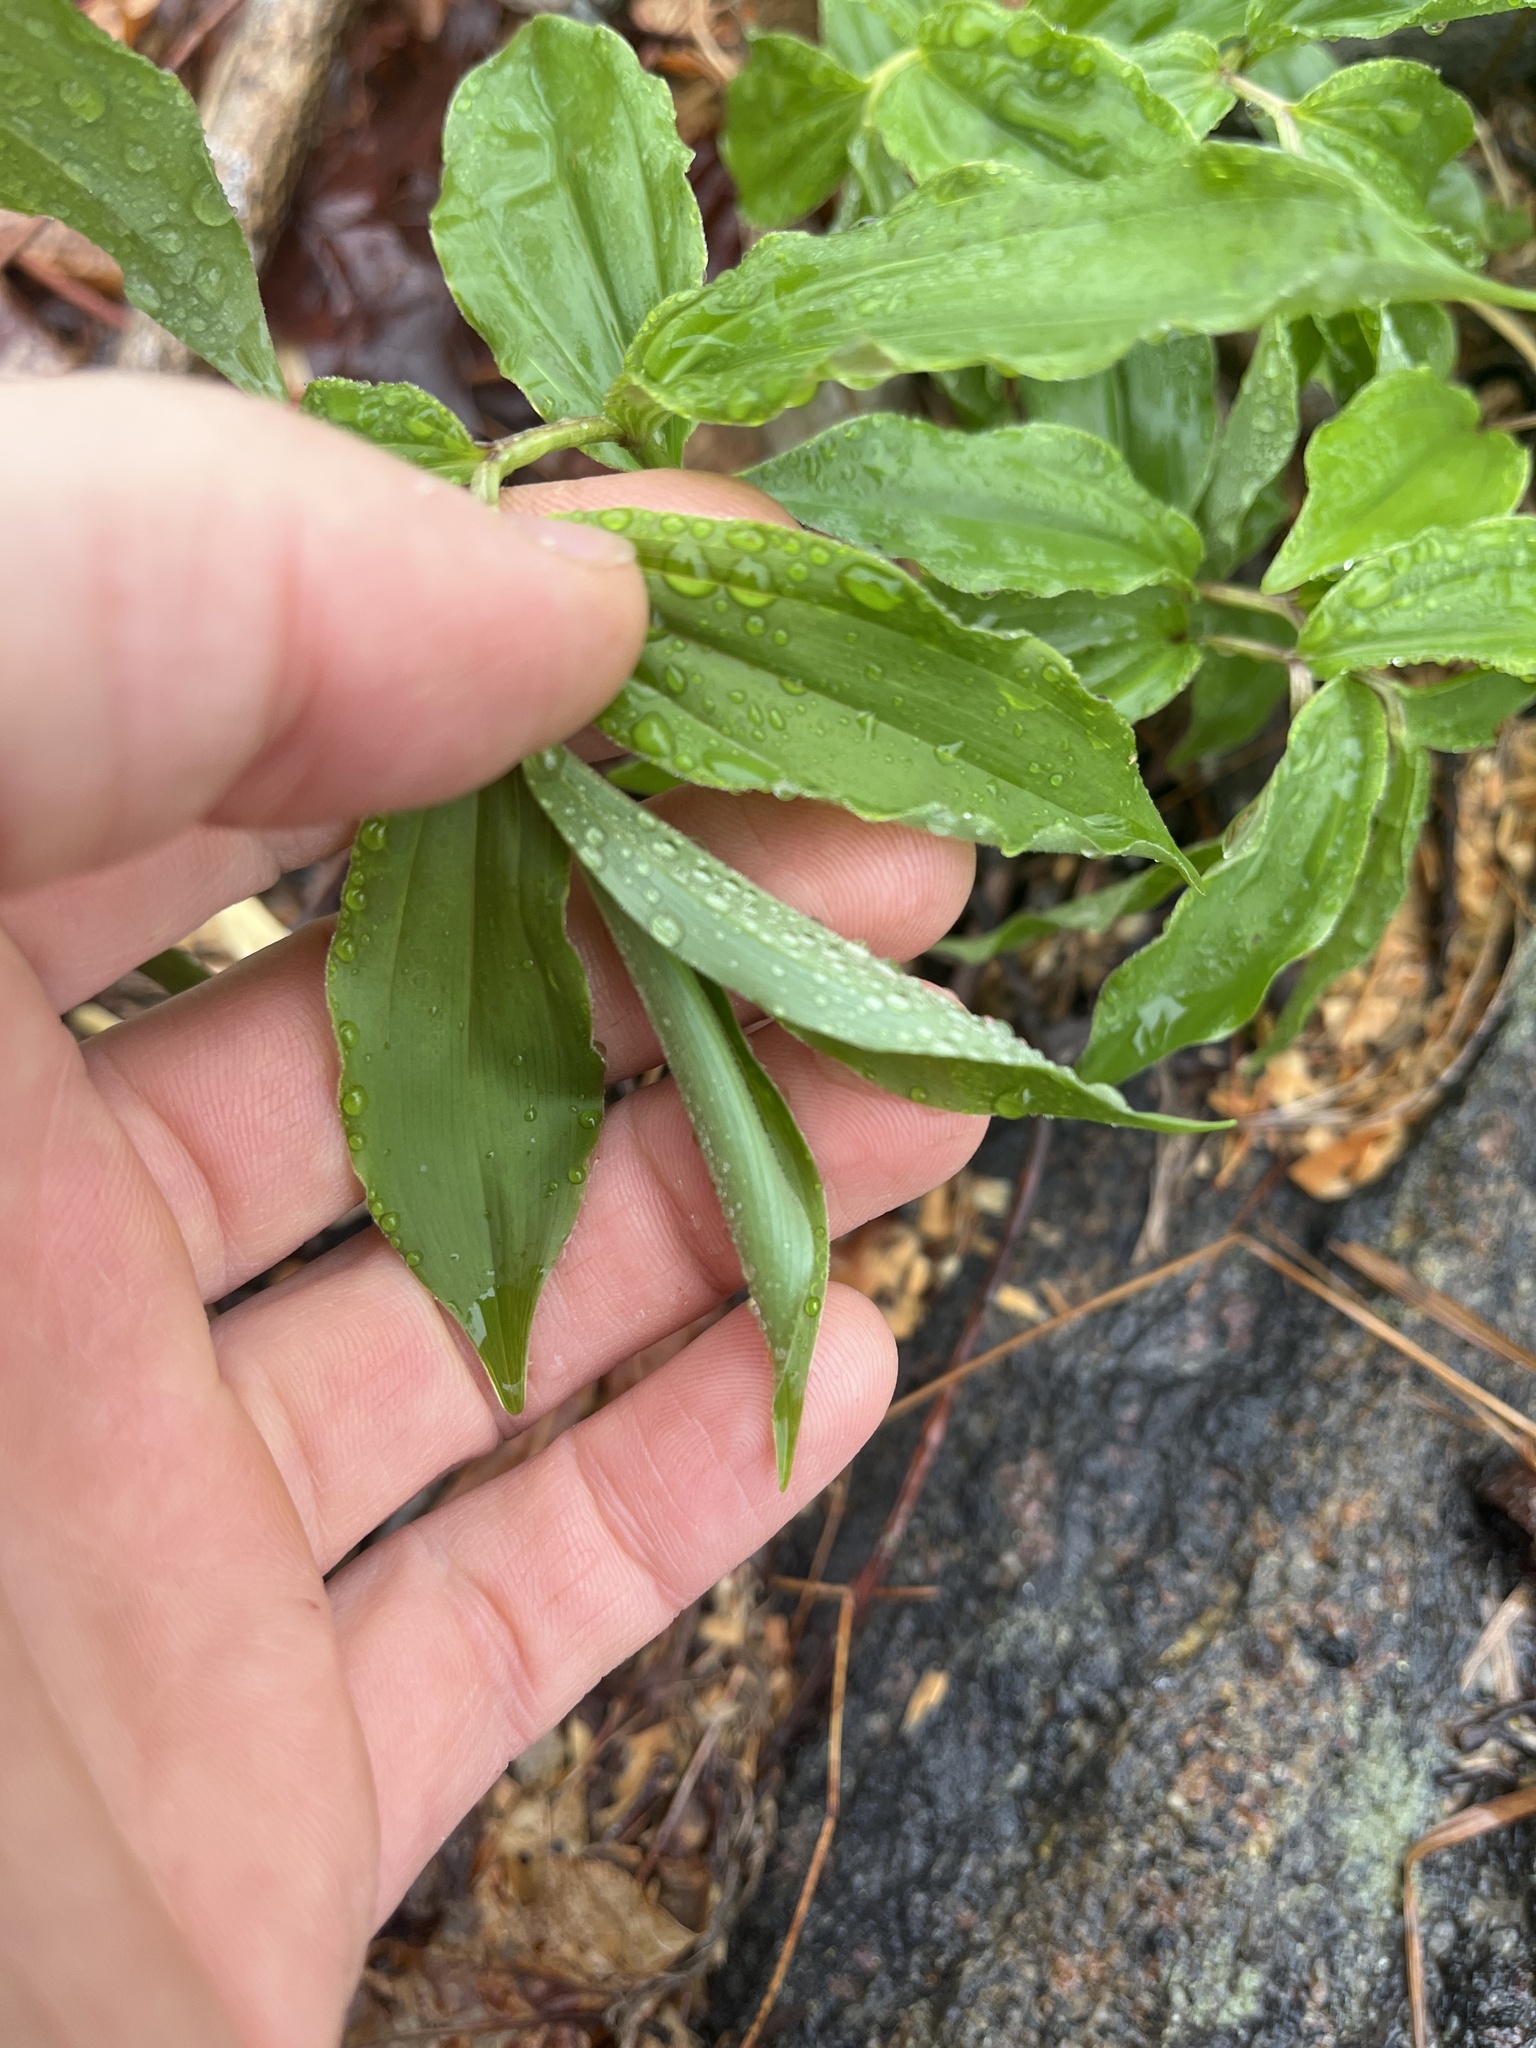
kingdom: Plantae
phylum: Tracheophyta
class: Liliopsida
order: Asparagales
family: Asparagaceae
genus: Maianthemum
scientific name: Maianthemum racemosum
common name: False spikenard
